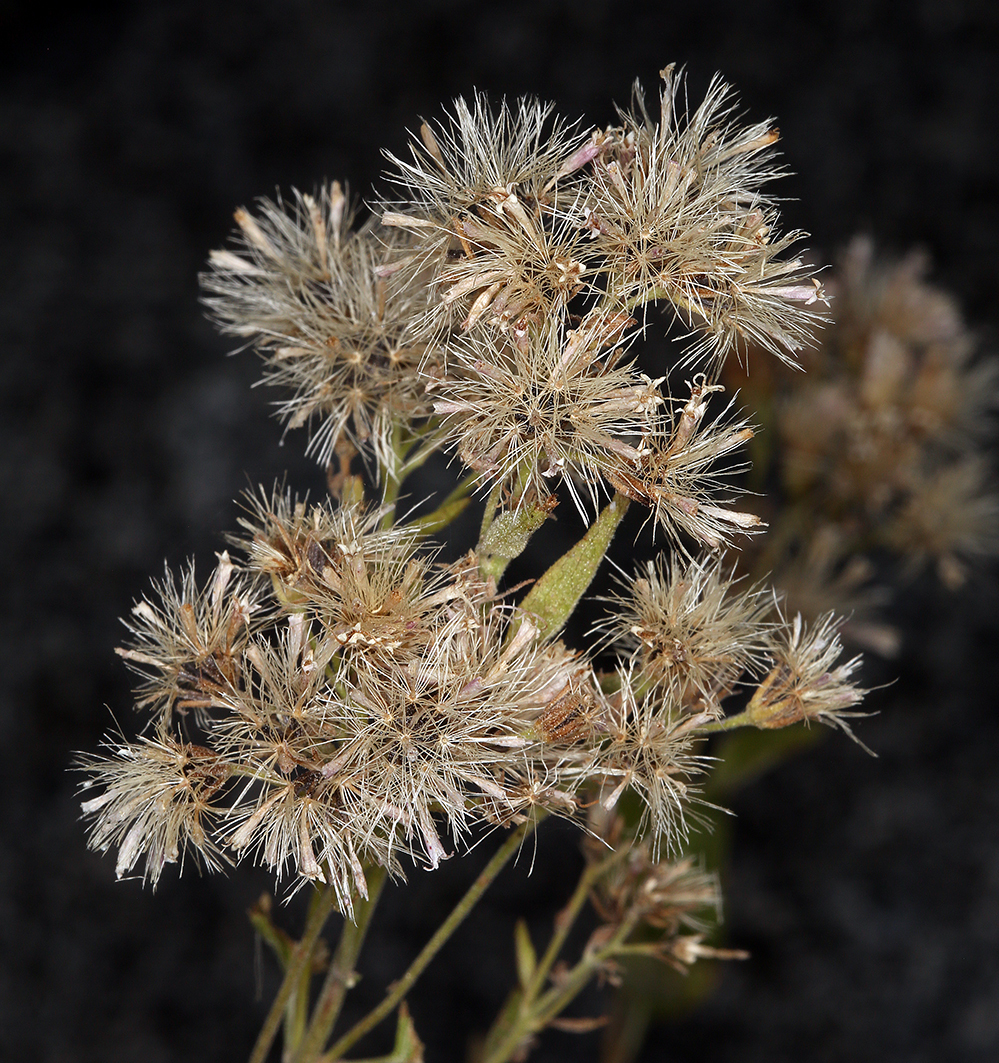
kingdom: Plantae
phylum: Tracheophyta
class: Magnoliopsida
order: Asterales
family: Asteraceae
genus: Ageratina
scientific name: Ageratina occidentalis
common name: Western snakeroot
